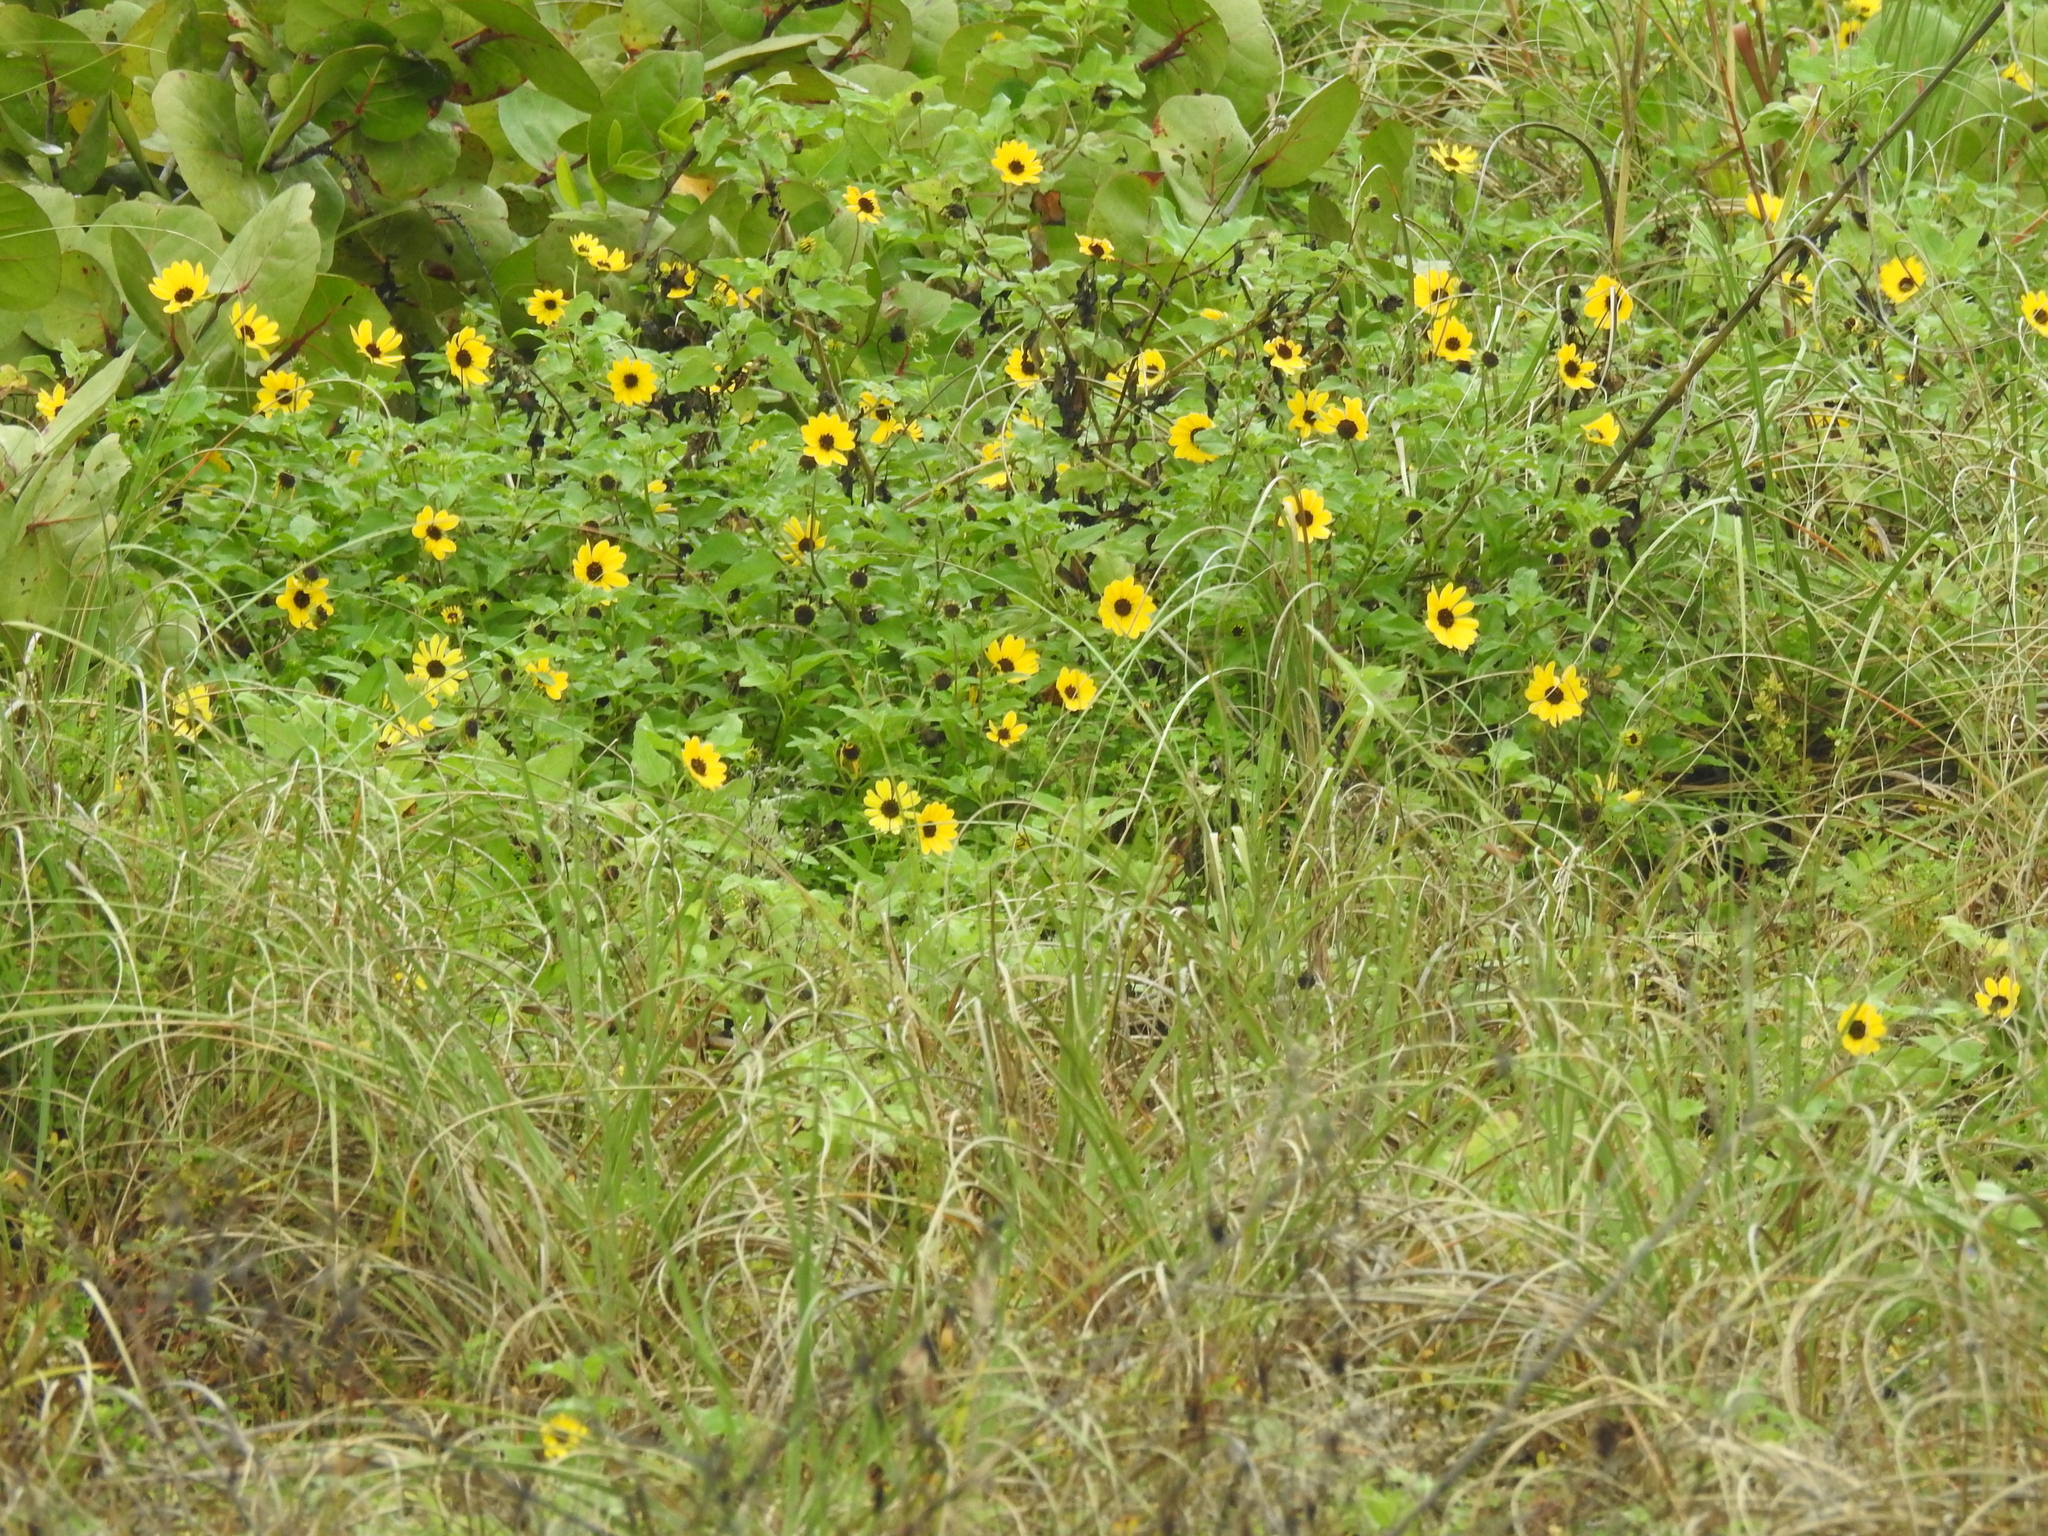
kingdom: Plantae
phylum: Tracheophyta
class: Magnoliopsida
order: Asterales
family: Asteraceae
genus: Helianthus
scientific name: Helianthus debilis
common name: Weak sunflower
